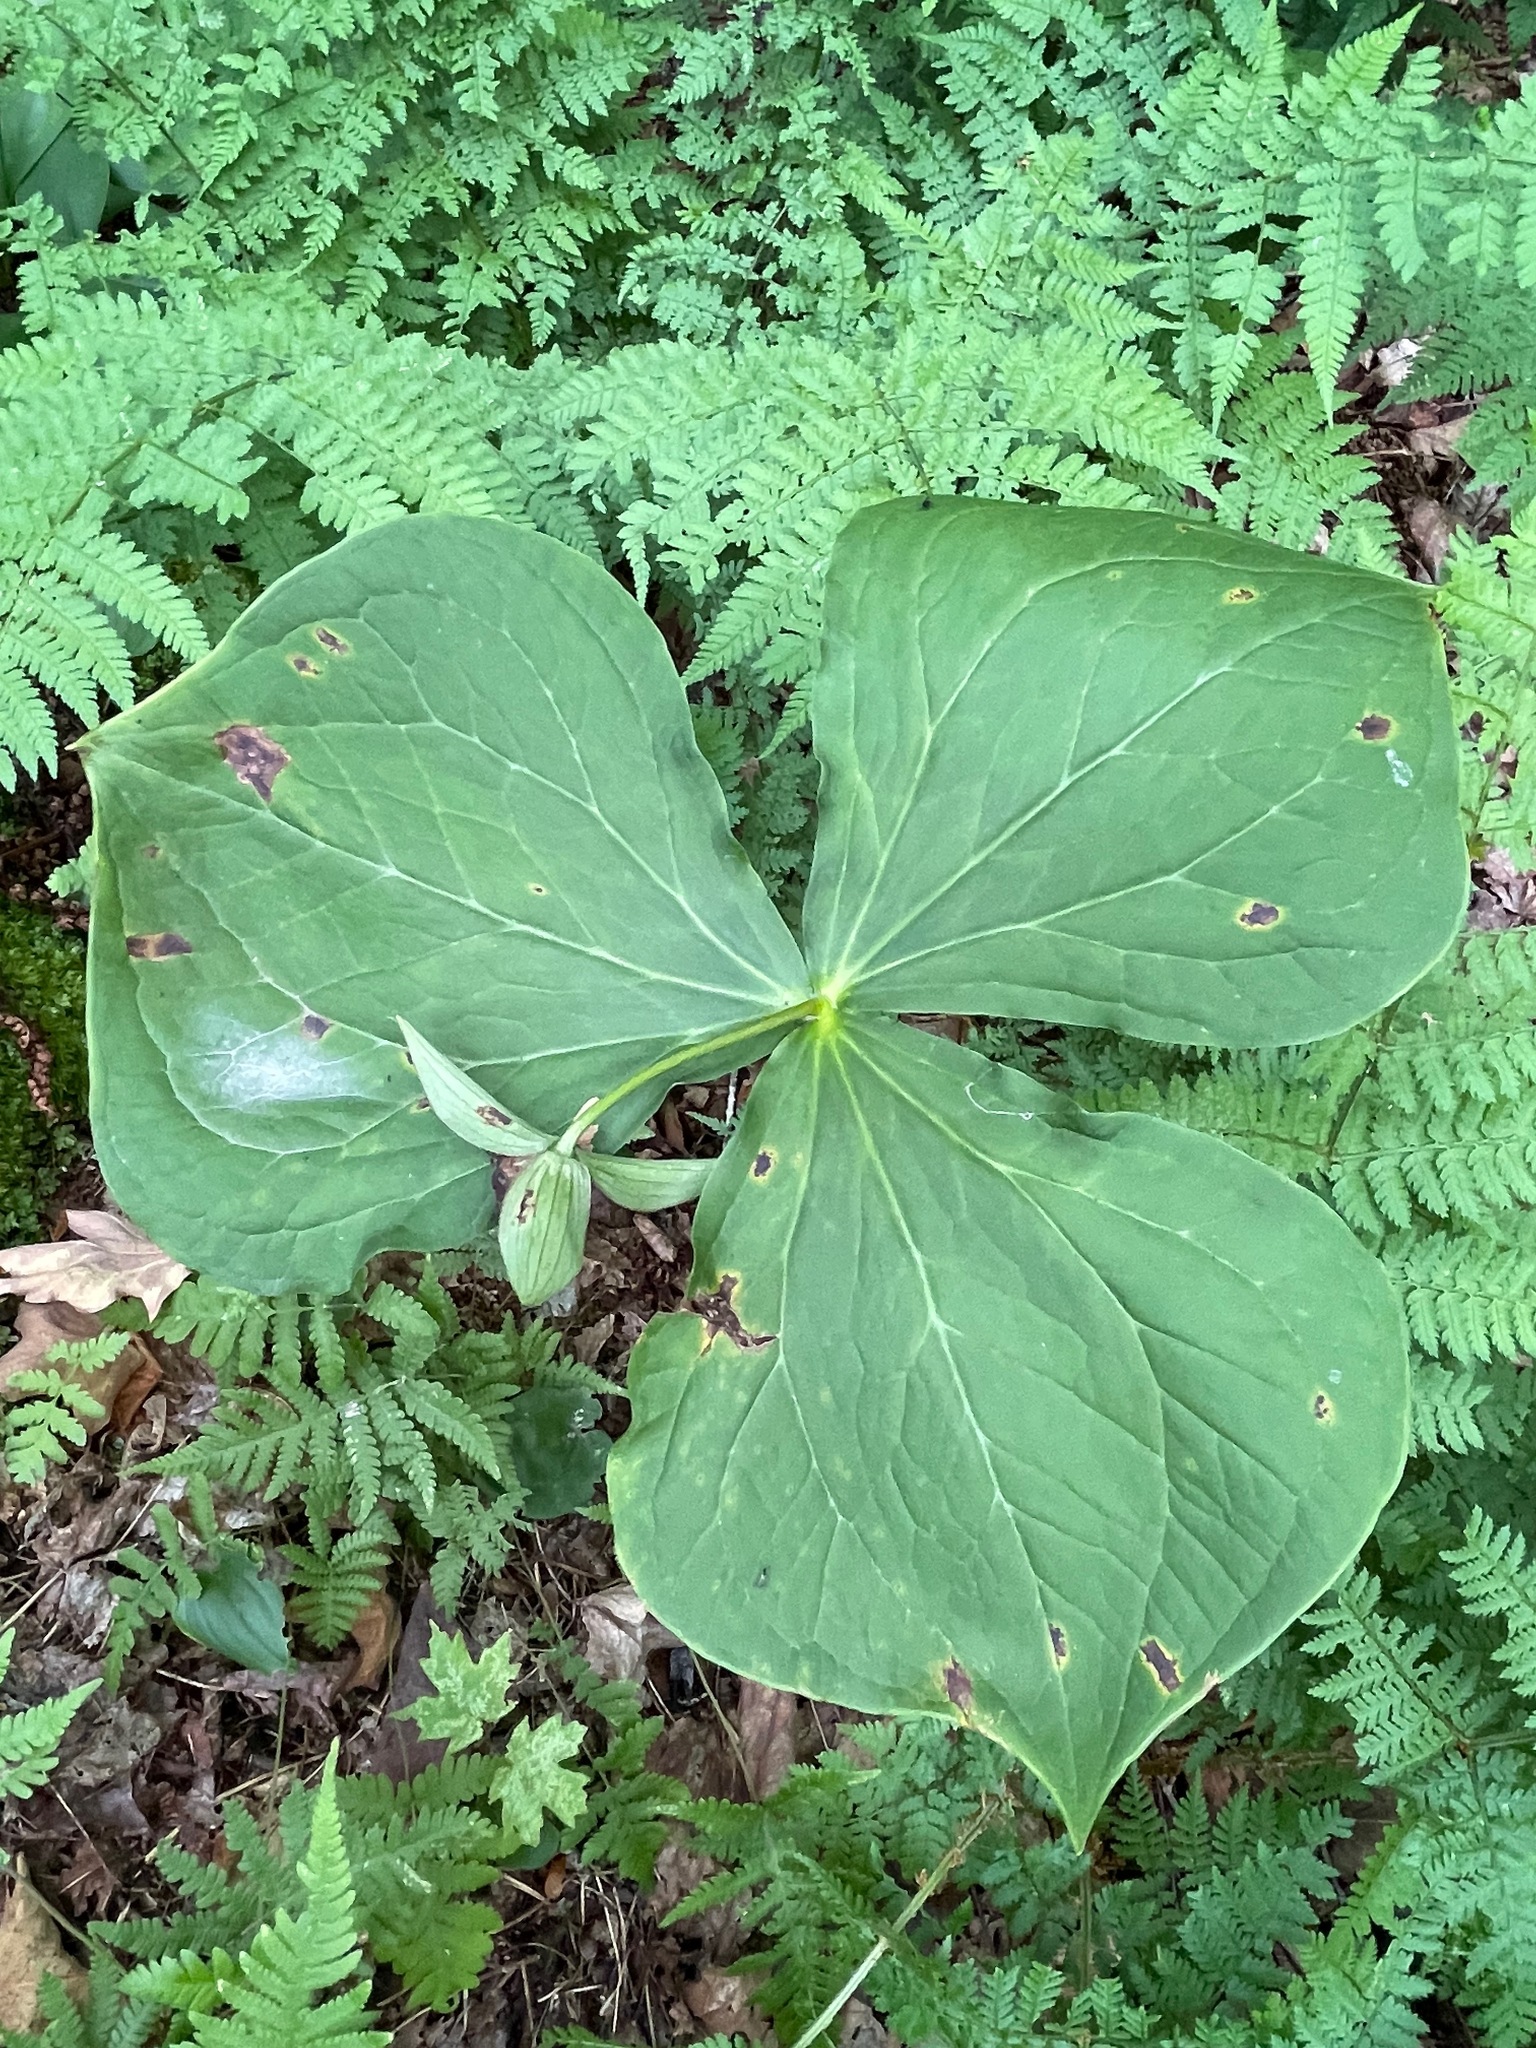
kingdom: Plantae
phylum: Tracheophyta
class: Liliopsida
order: Liliales
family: Melanthiaceae
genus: Trillium
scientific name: Trillium erectum
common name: Purple trillium
